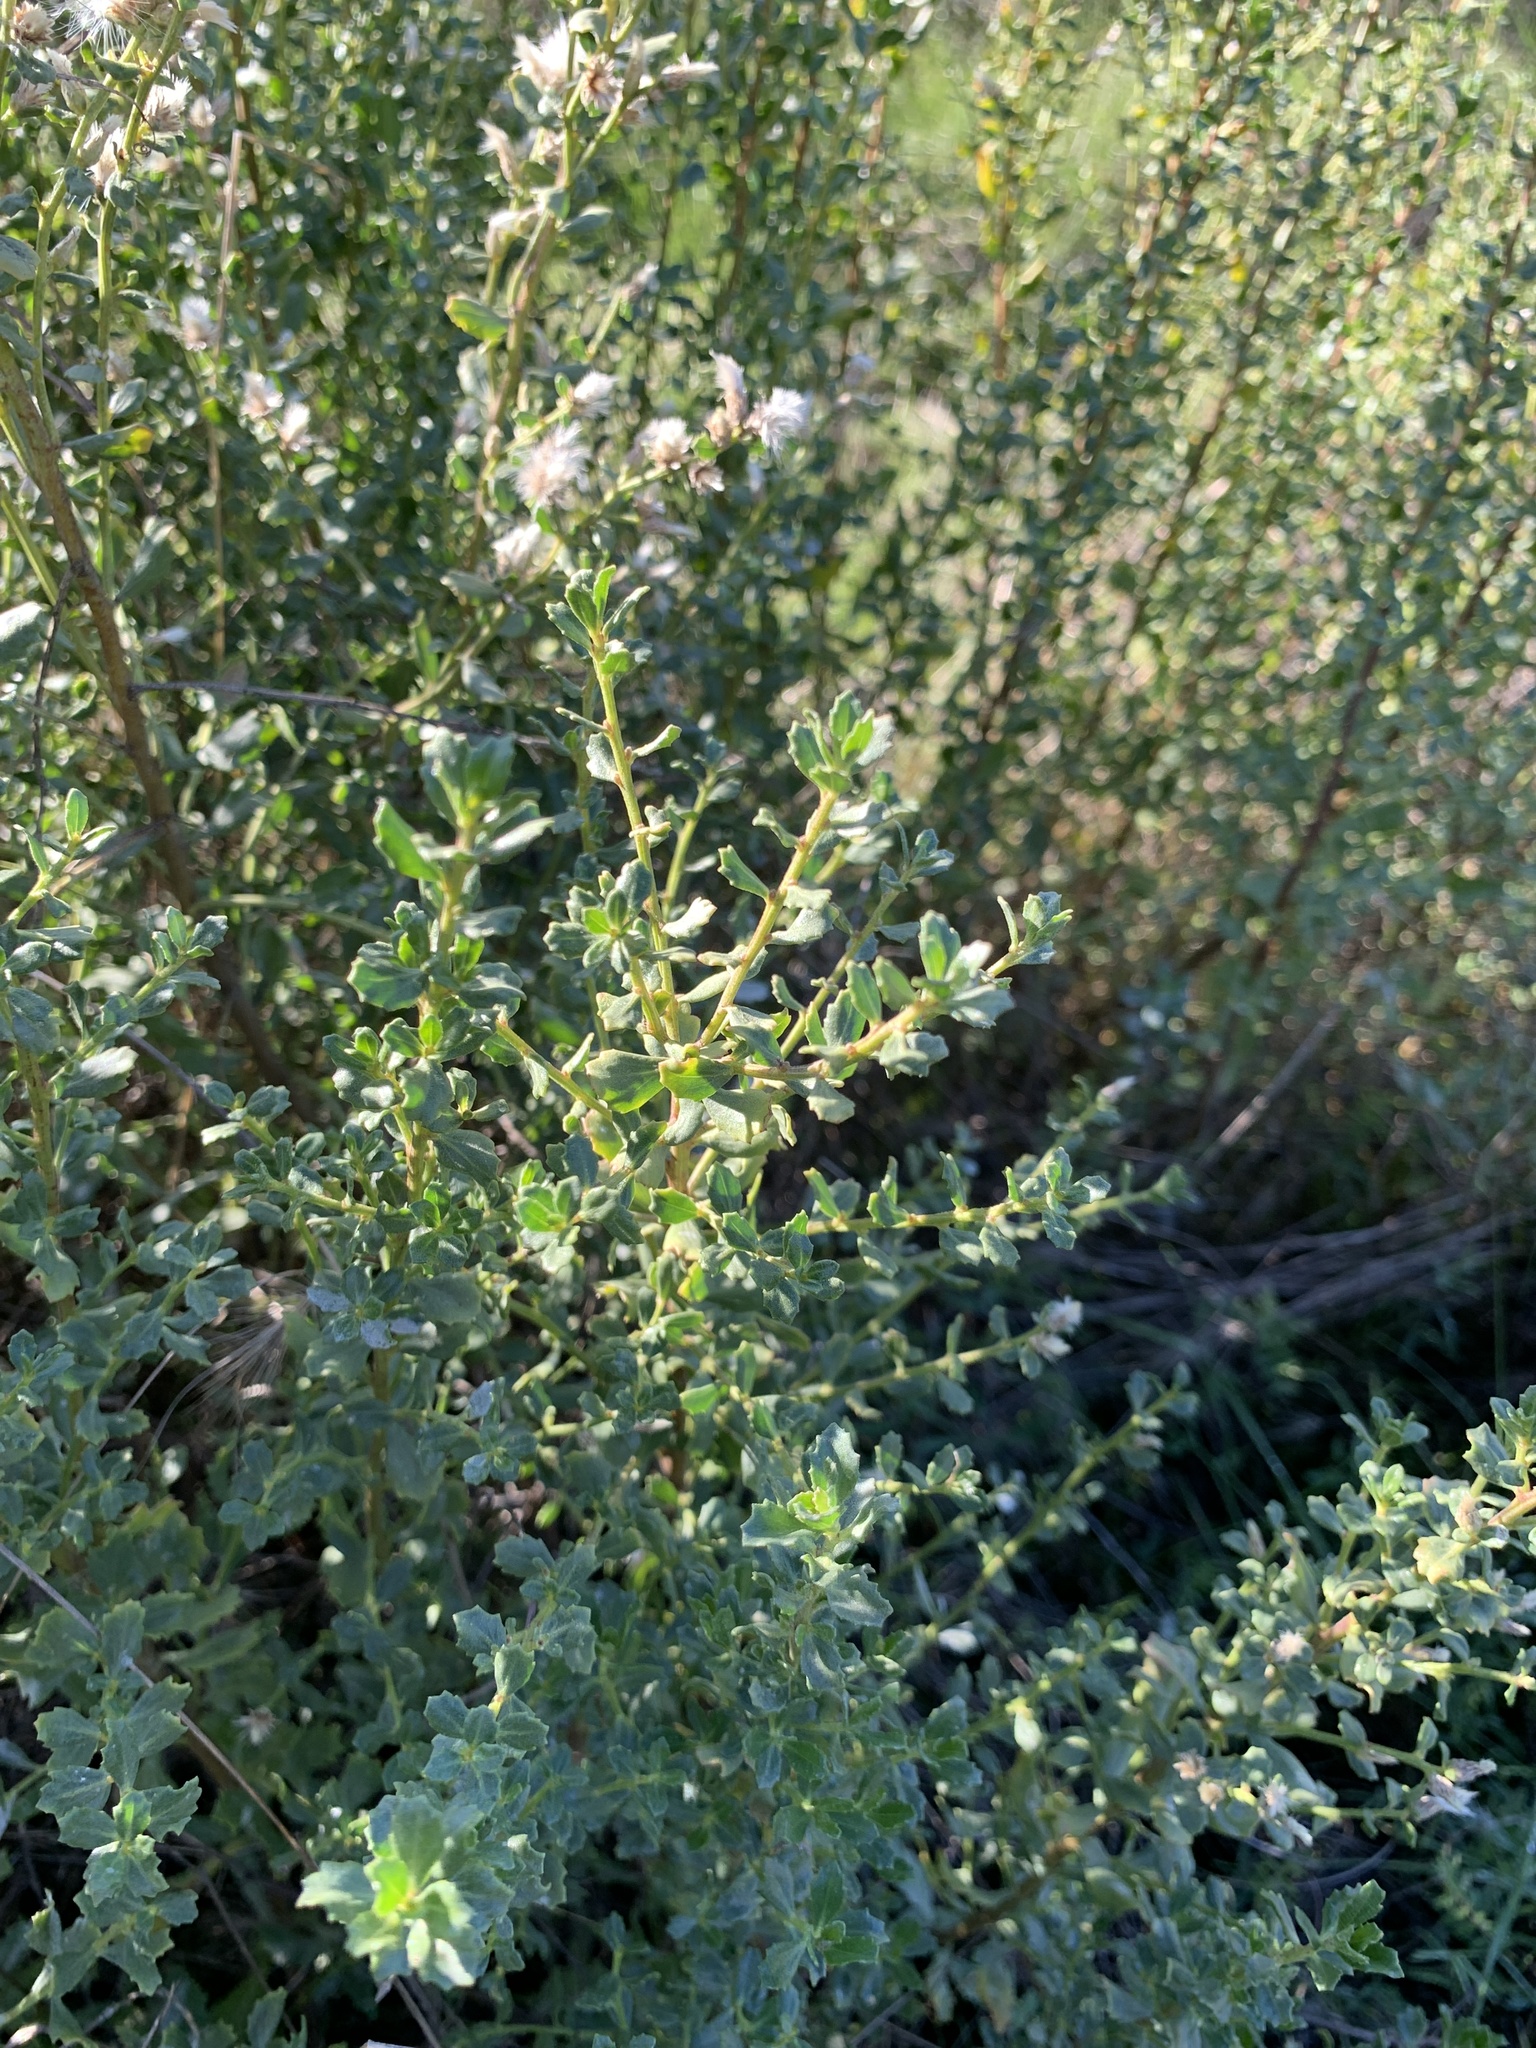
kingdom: Plantae
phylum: Tracheophyta
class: Magnoliopsida
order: Asterales
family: Asteraceae
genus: Baccharis
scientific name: Baccharis pilularis
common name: Coyotebrush
